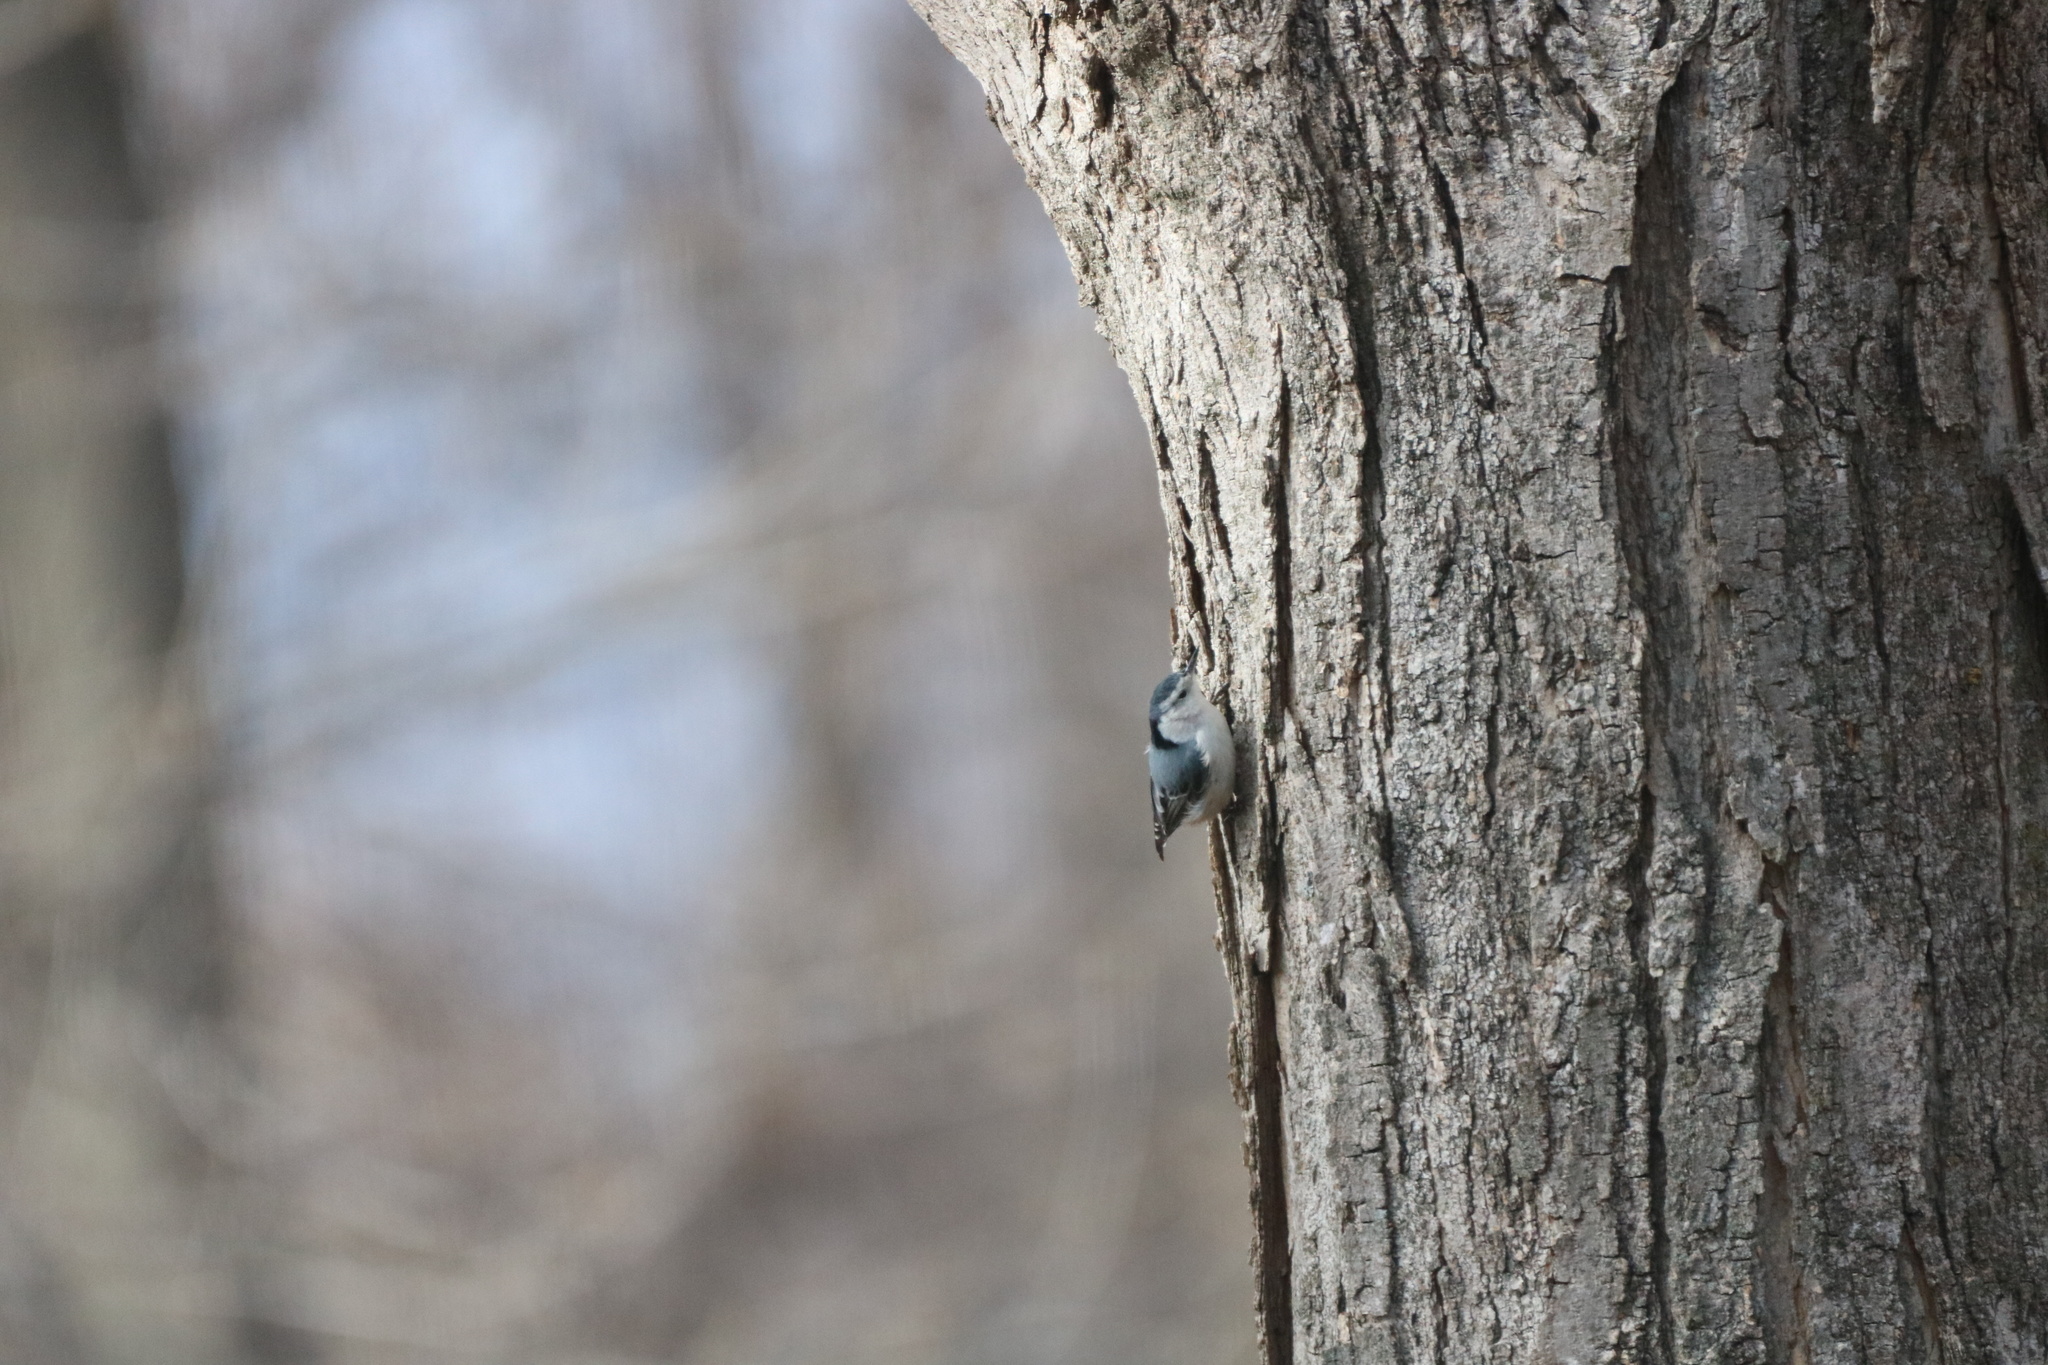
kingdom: Animalia
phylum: Chordata
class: Aves
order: Passeriformes
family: Sittidae
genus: Sitta
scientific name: Sitta carolinensis
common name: White-breasted nuthatch
